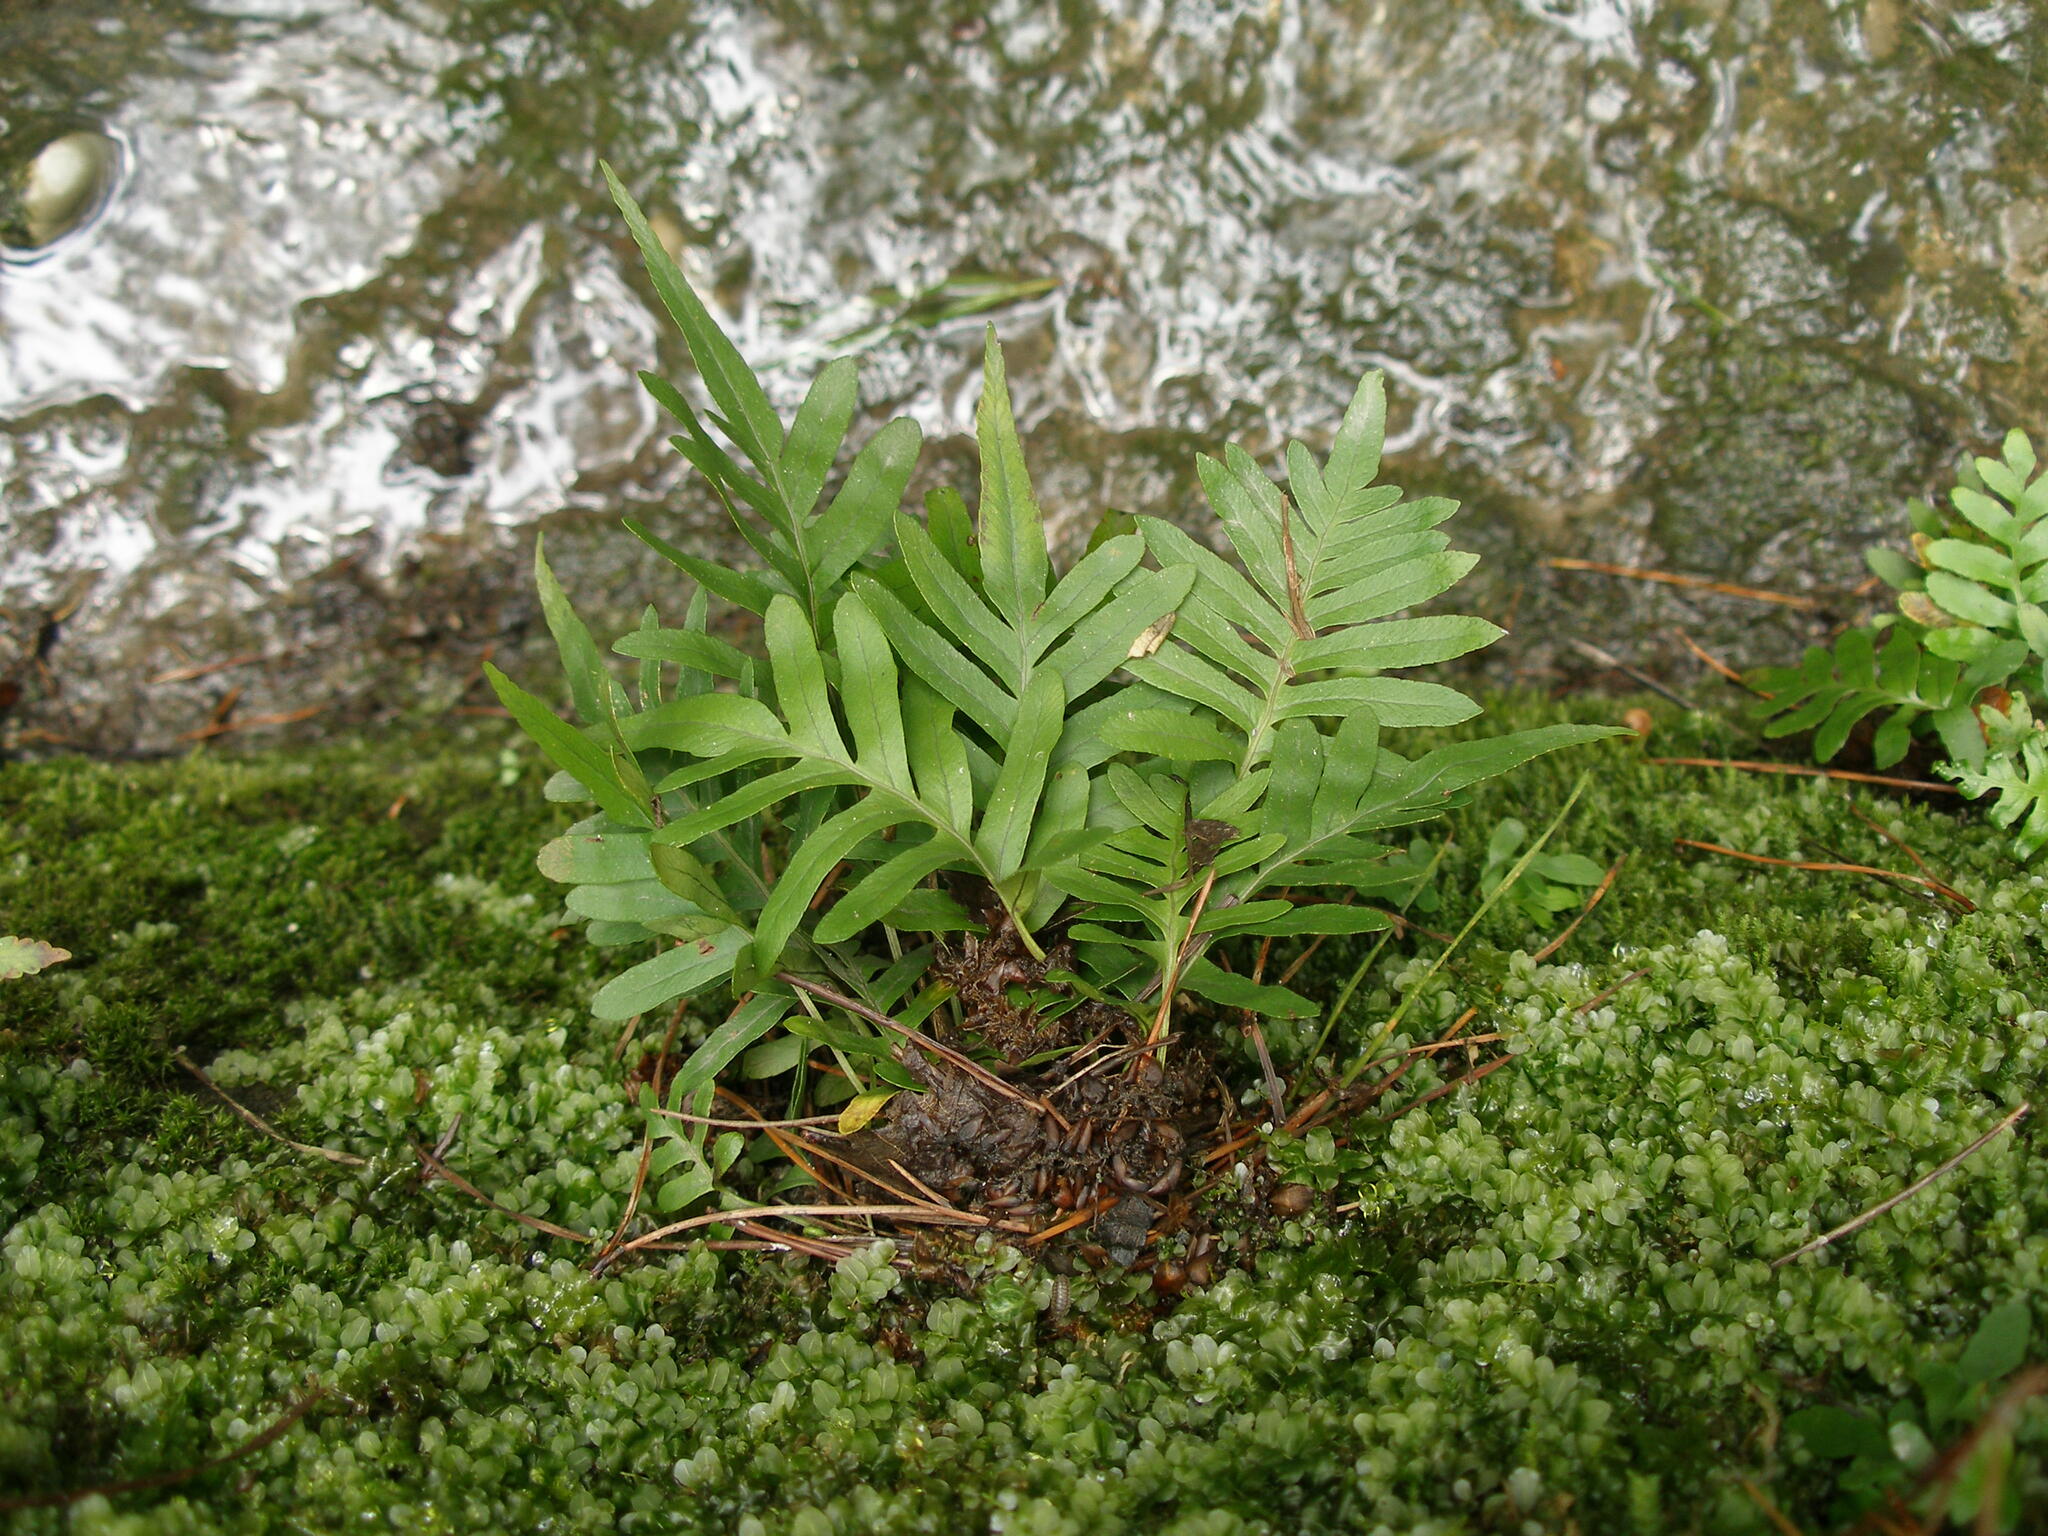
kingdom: Plantae
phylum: Tracheophyta
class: Polypodiopsida
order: Polypodiales
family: Polypodiaceae
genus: Polypodium
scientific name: Polypodium cambricum
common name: Southern polypody
